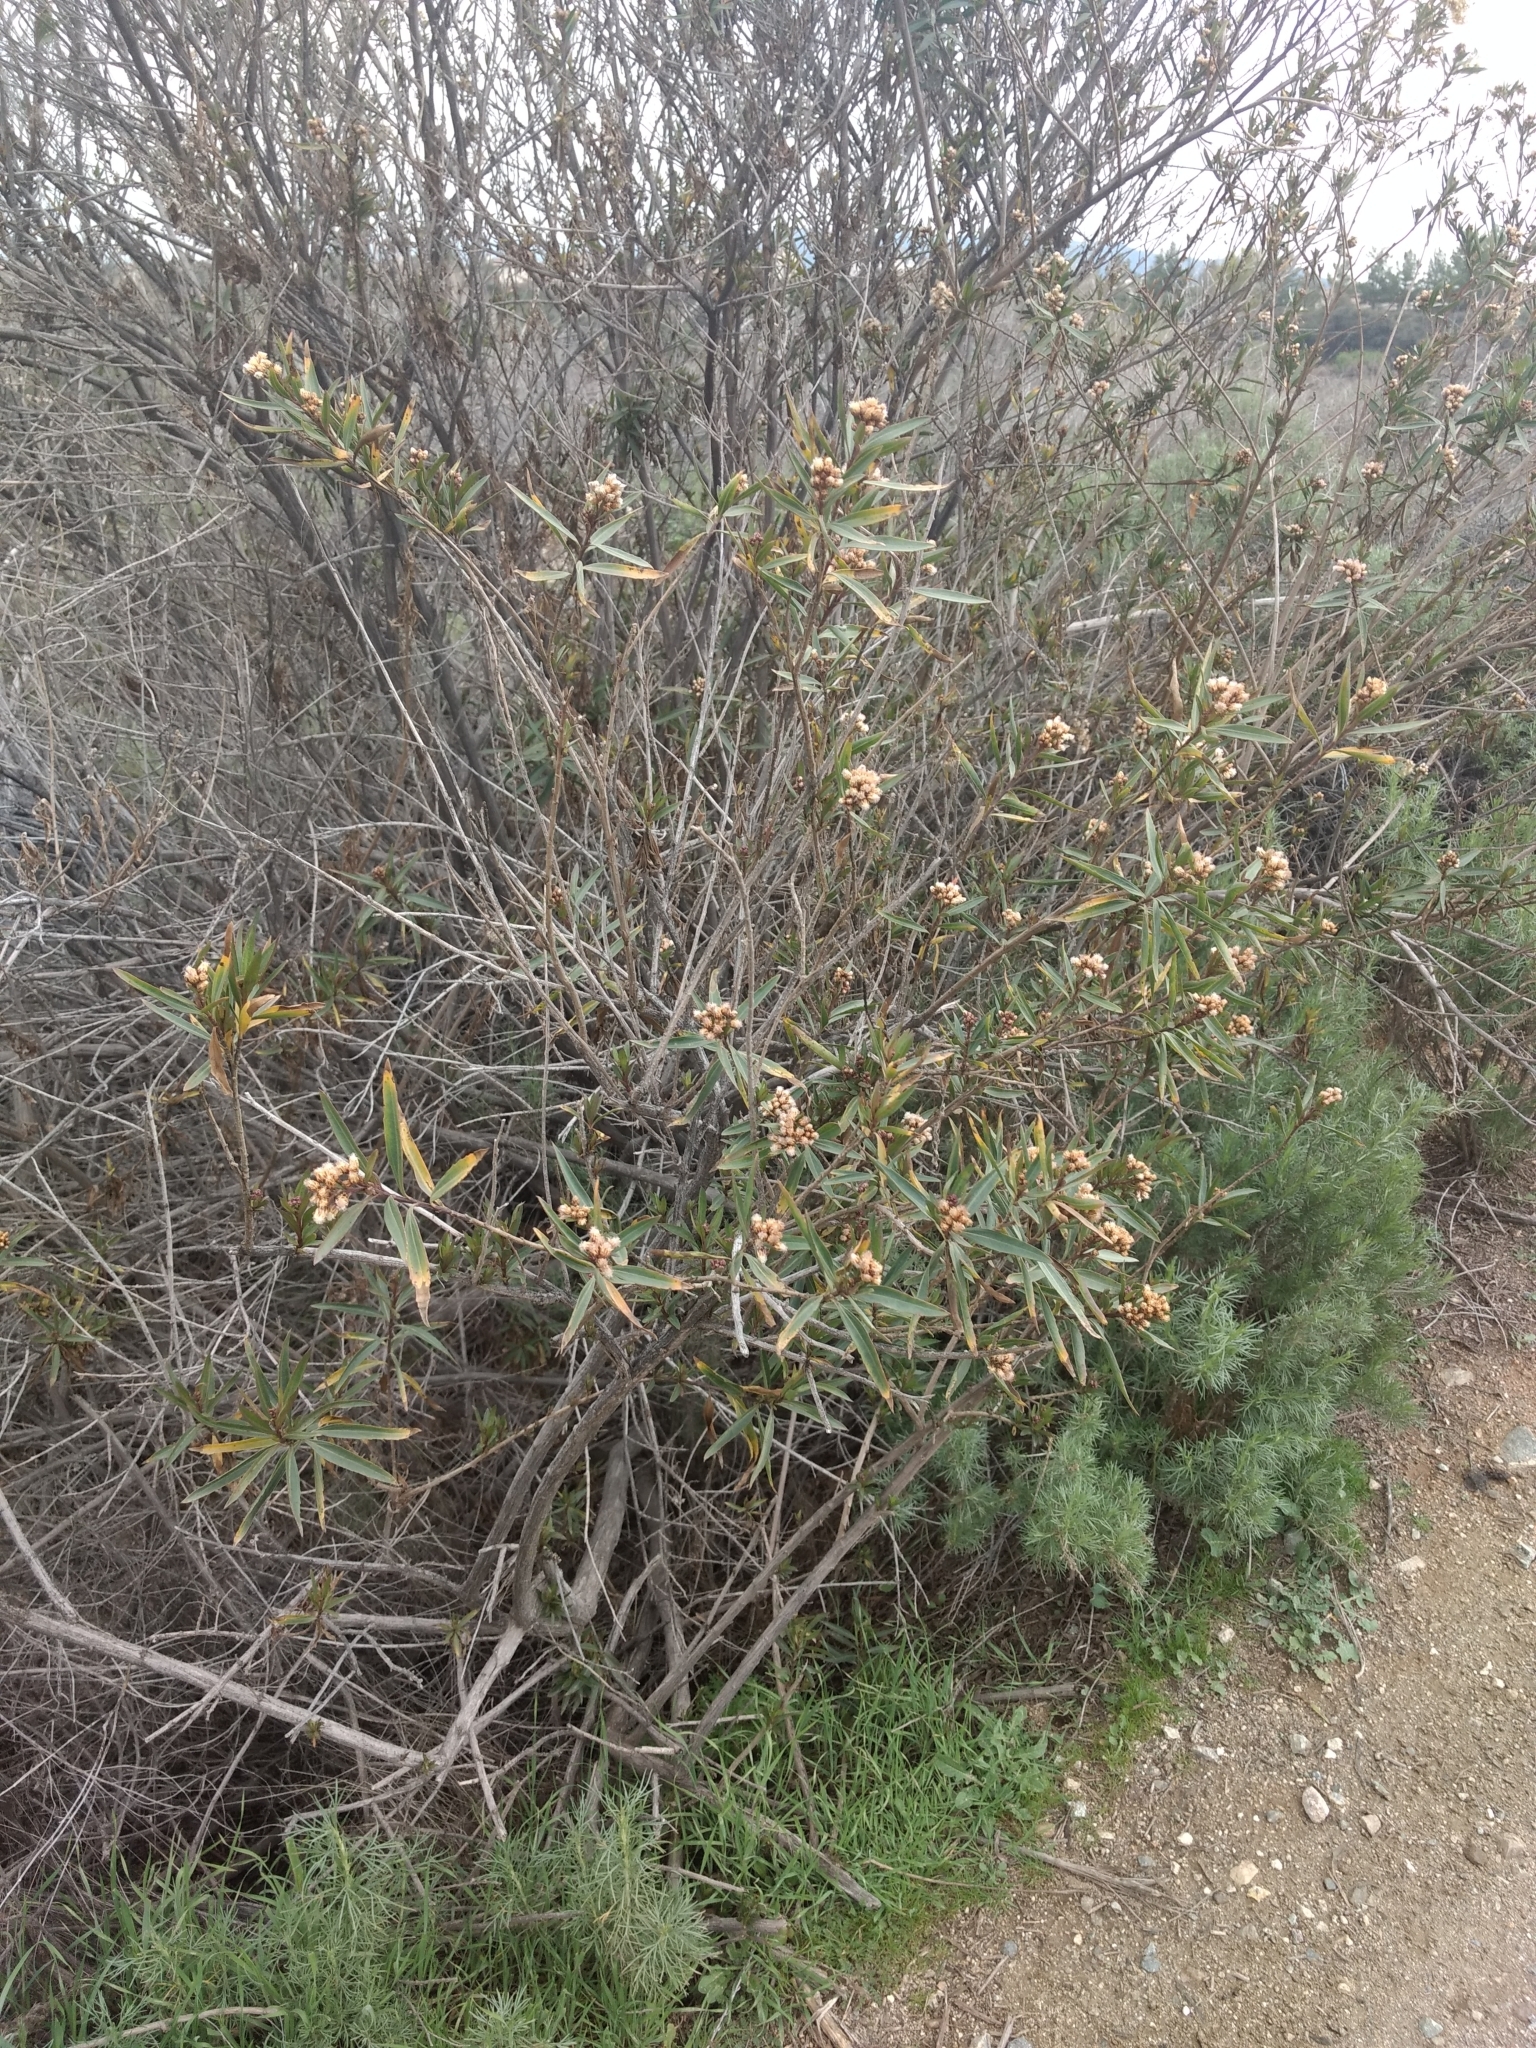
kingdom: Plantae
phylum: Tracheophyta
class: Magnoliopsida
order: Asterales
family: Asteraceae
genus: Baccharis
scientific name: Baccharis salicifolia
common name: Sticky baccharis
